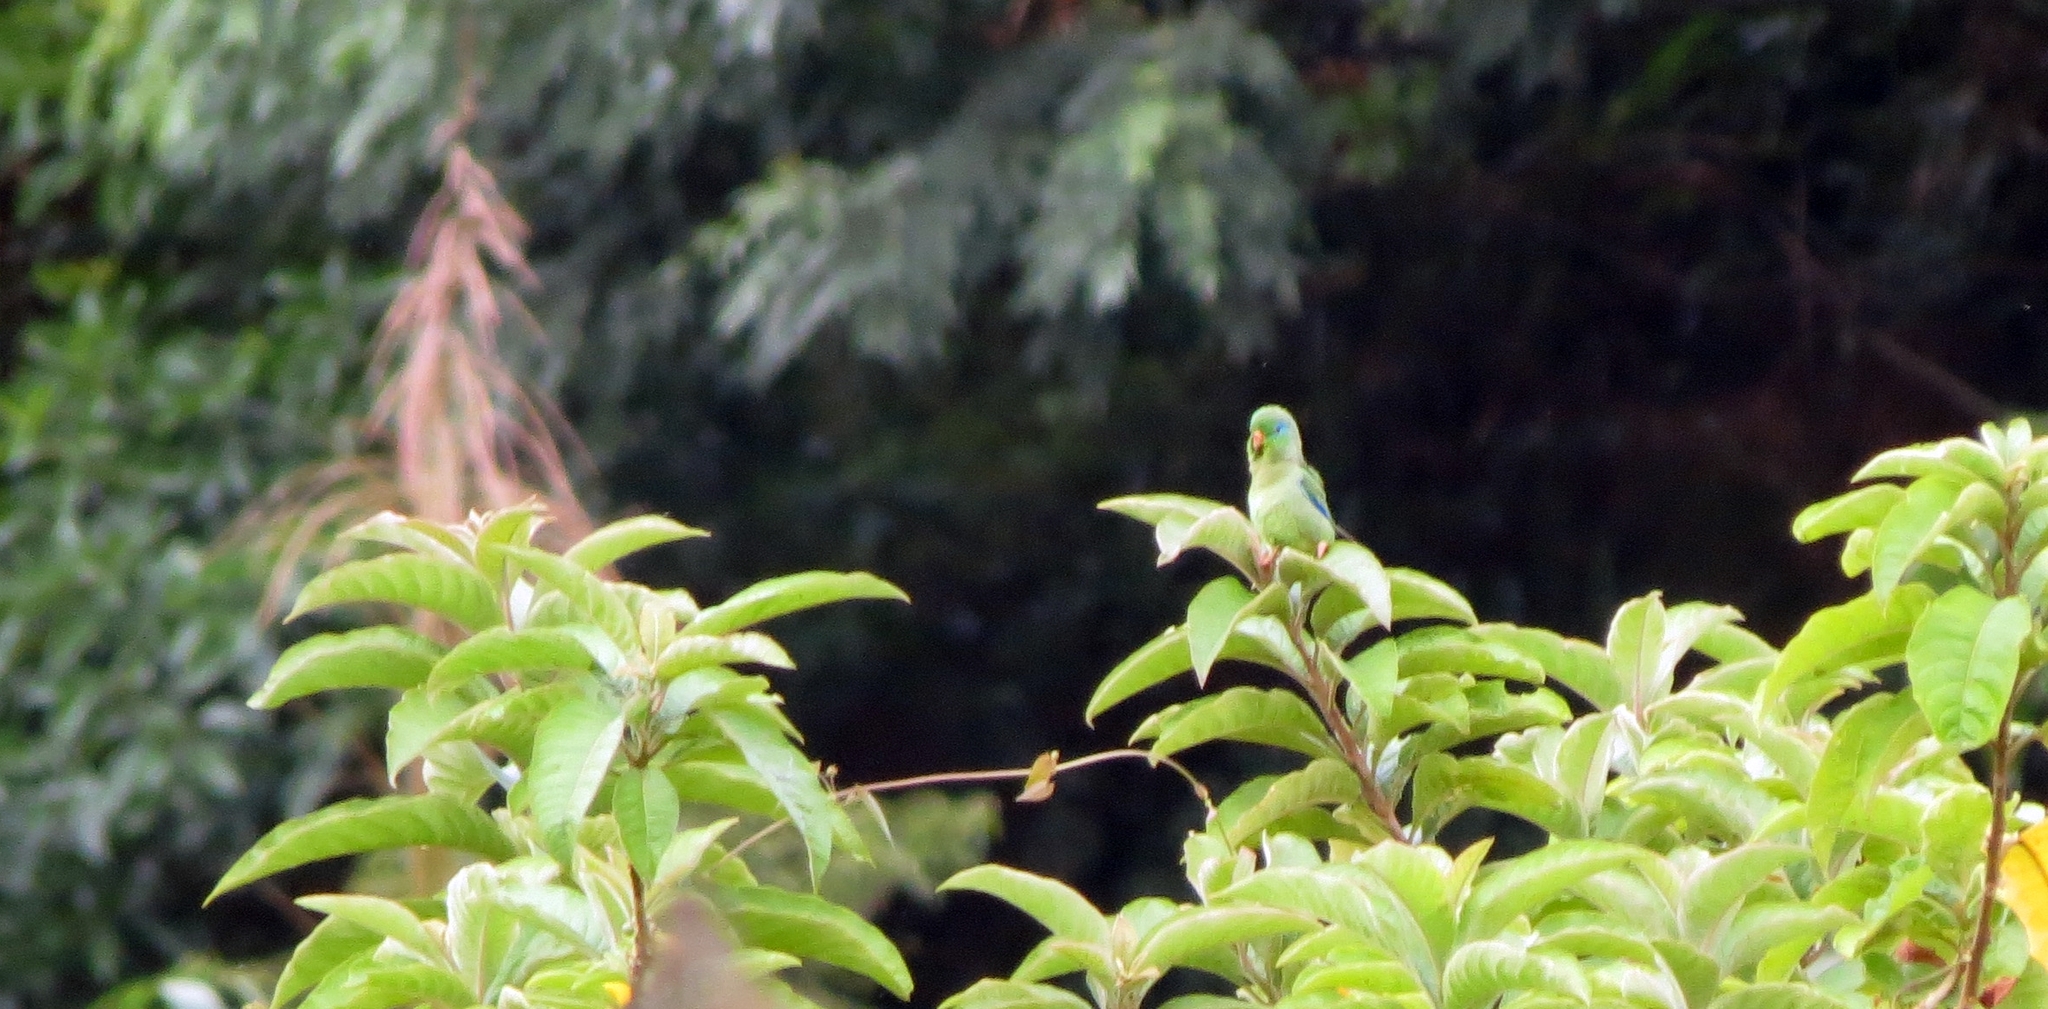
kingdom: Animalia
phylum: Chordata
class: Aves
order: Psittaciformes
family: Psittacidae
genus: Forpus
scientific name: Forpus conspicillatus
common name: Spectacled parrotlet
